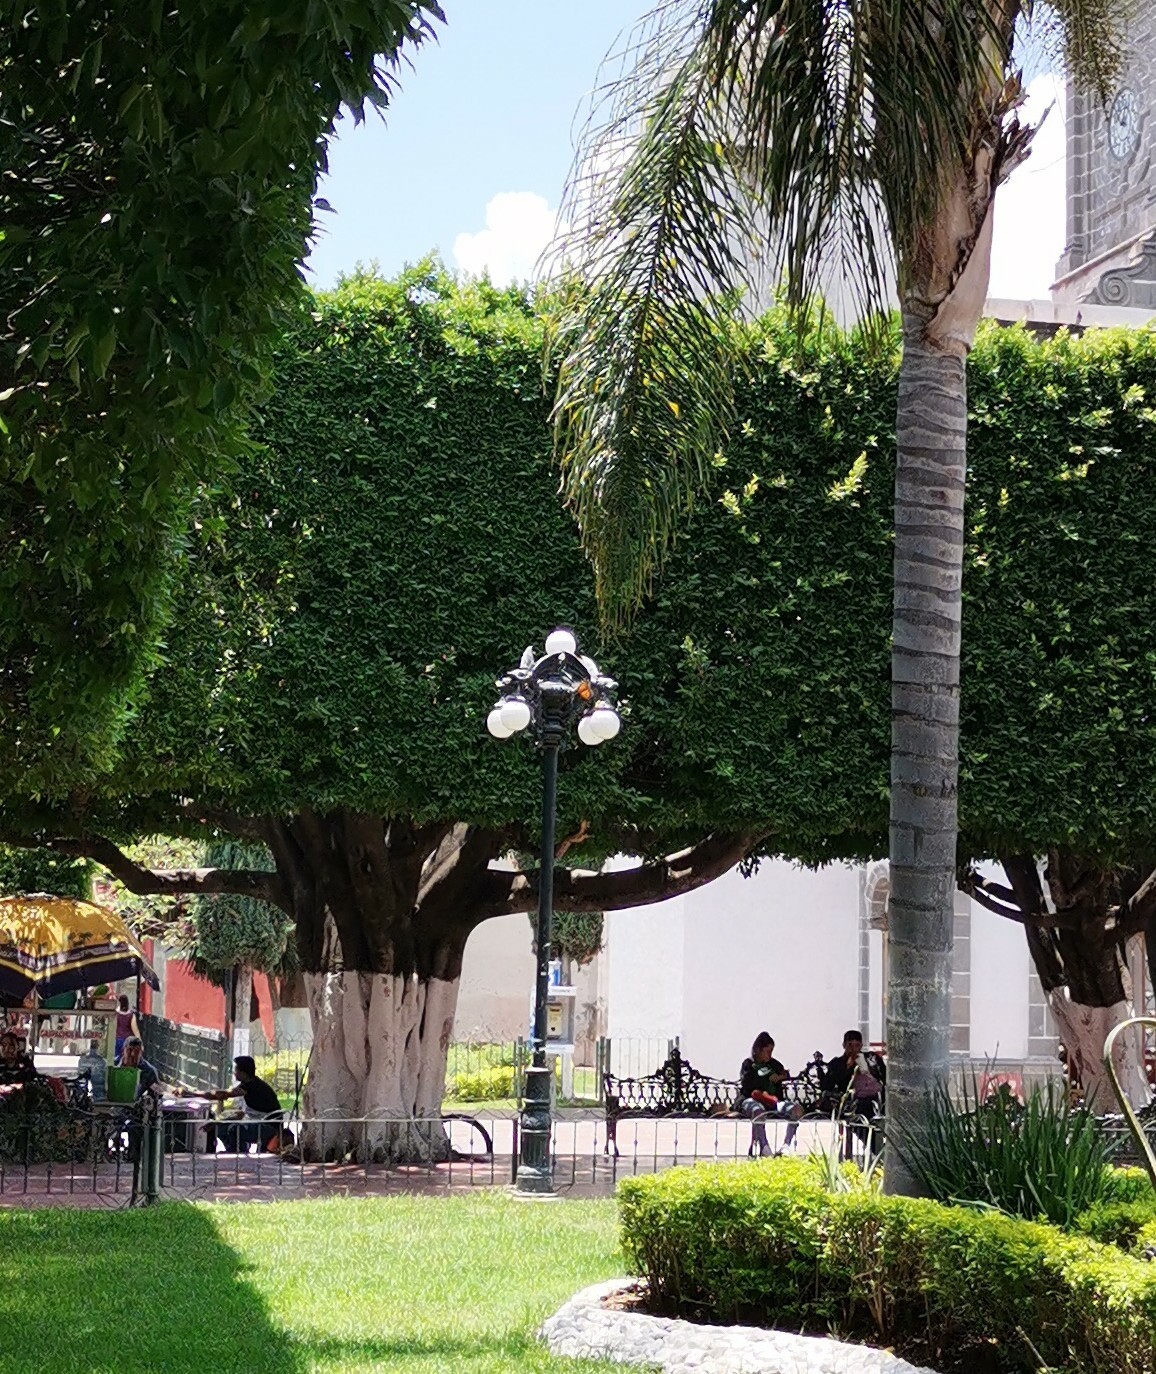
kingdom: Animalia
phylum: Arthropoda
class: Insecta
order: Lepidoptera
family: Nymphalidae
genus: Danaus
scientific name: Danaus plexippus
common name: Monarch
